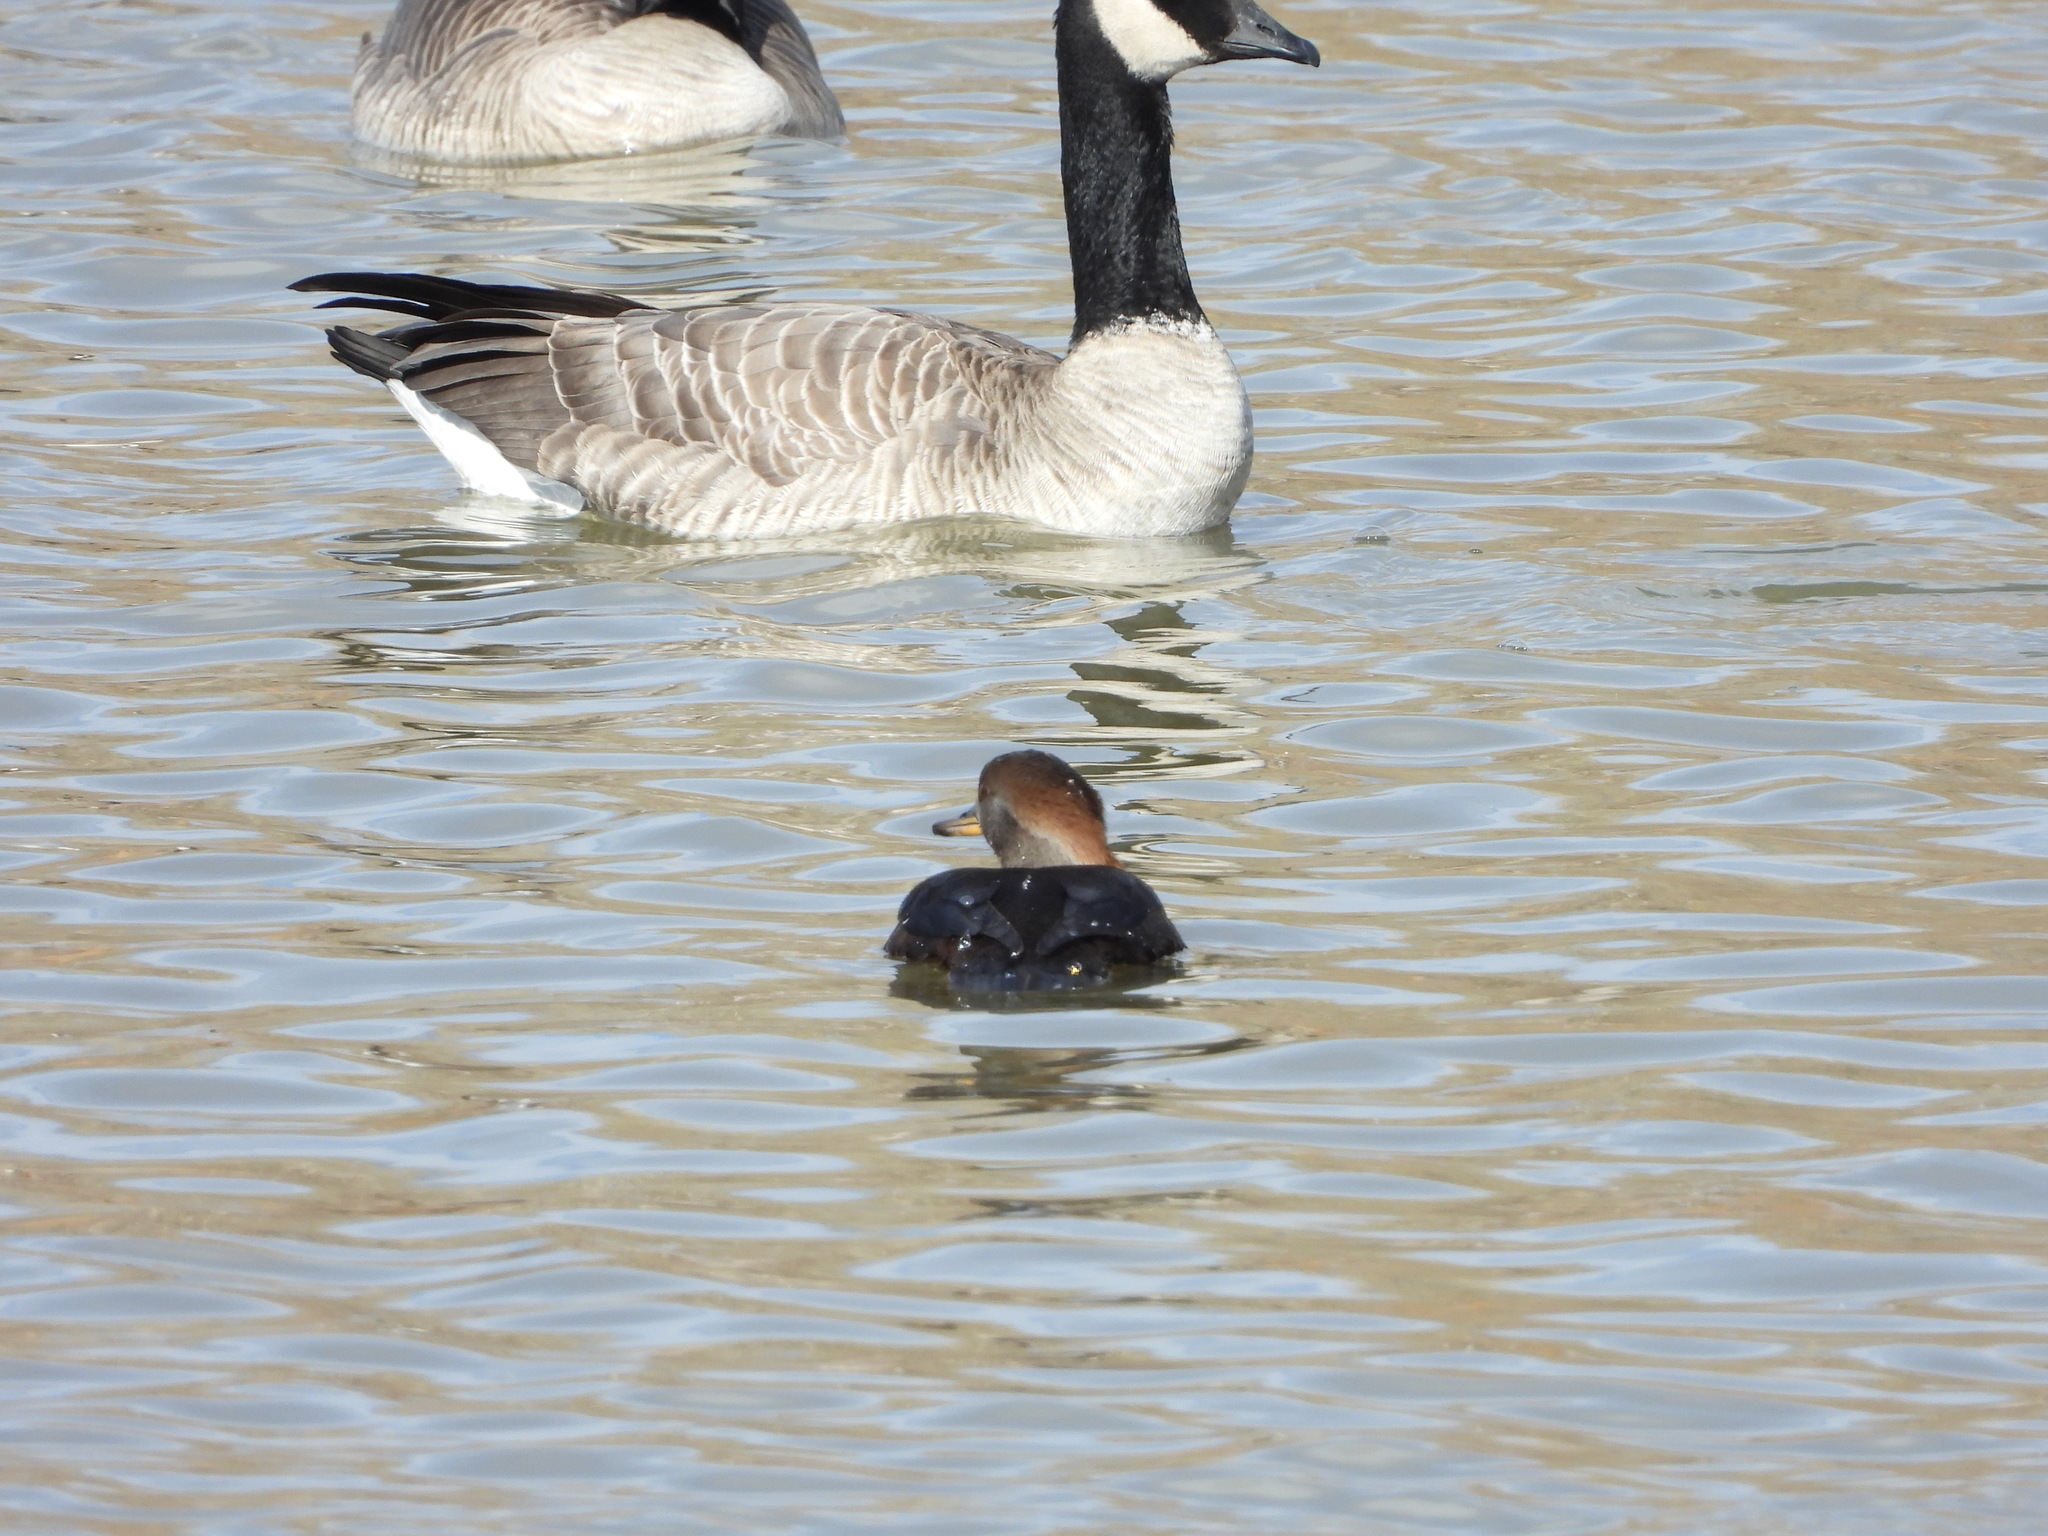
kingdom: Animalia
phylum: Chordata
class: Aves
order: Anseriformes
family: Anatidae
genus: Lophodytes
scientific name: Lophodytes cucullatus
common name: Hooded merganser
